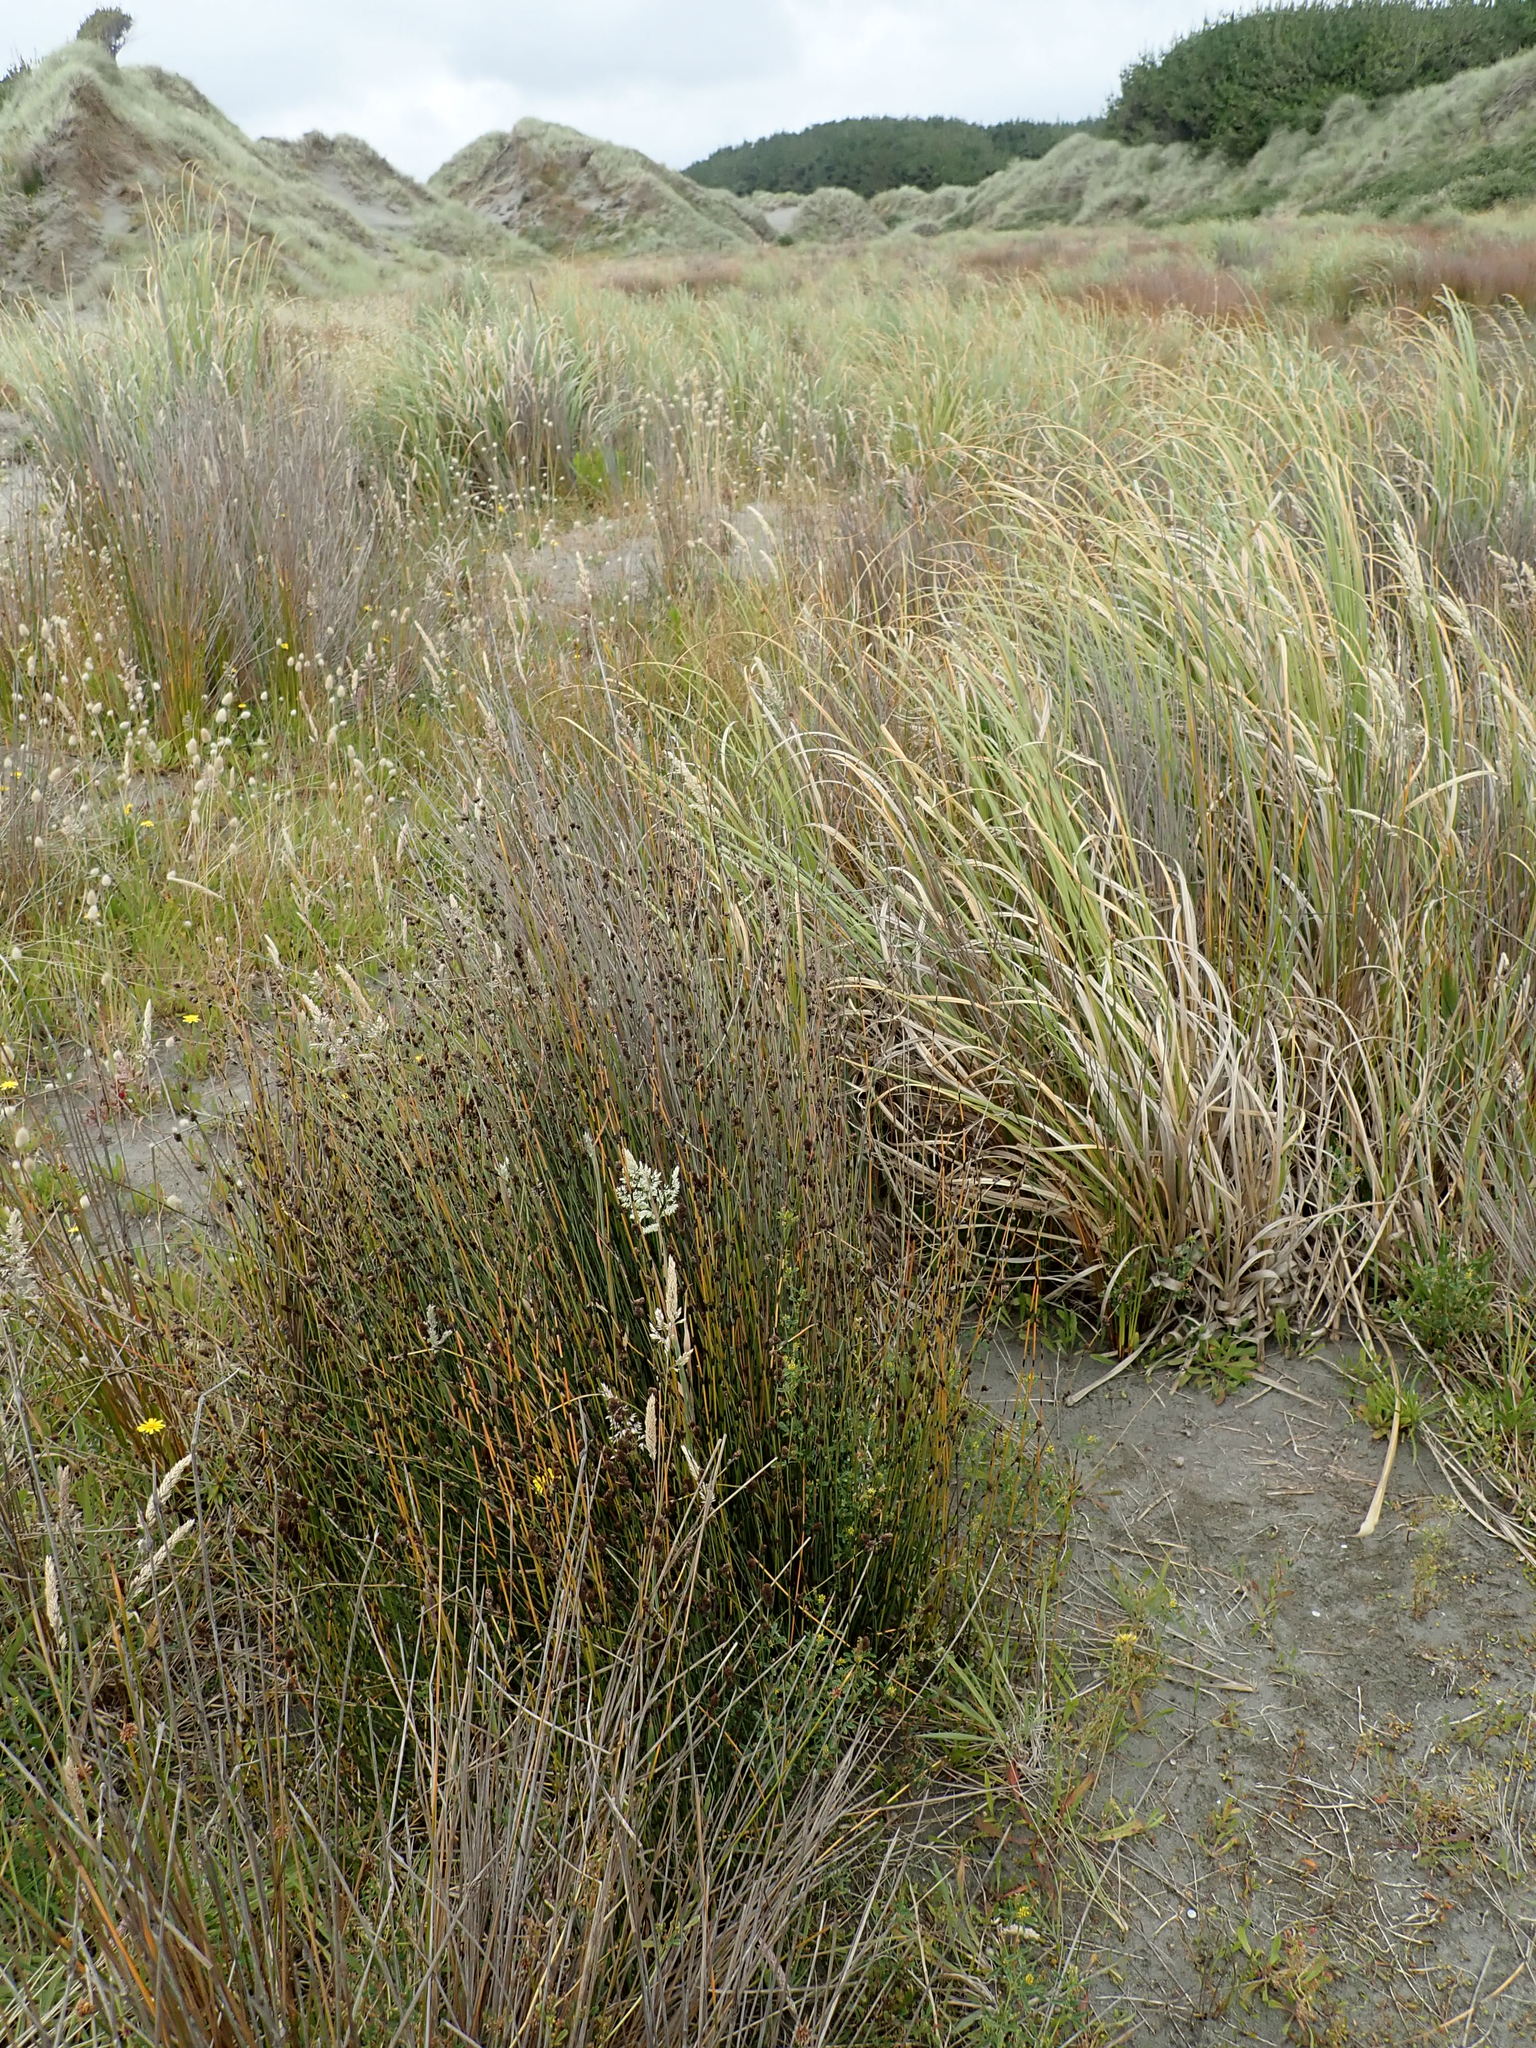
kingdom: Plantae
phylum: Tracheophyta
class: Liliopsida
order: Poales
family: Restionaceae
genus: Apodasmia
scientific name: Apodasmia similis
